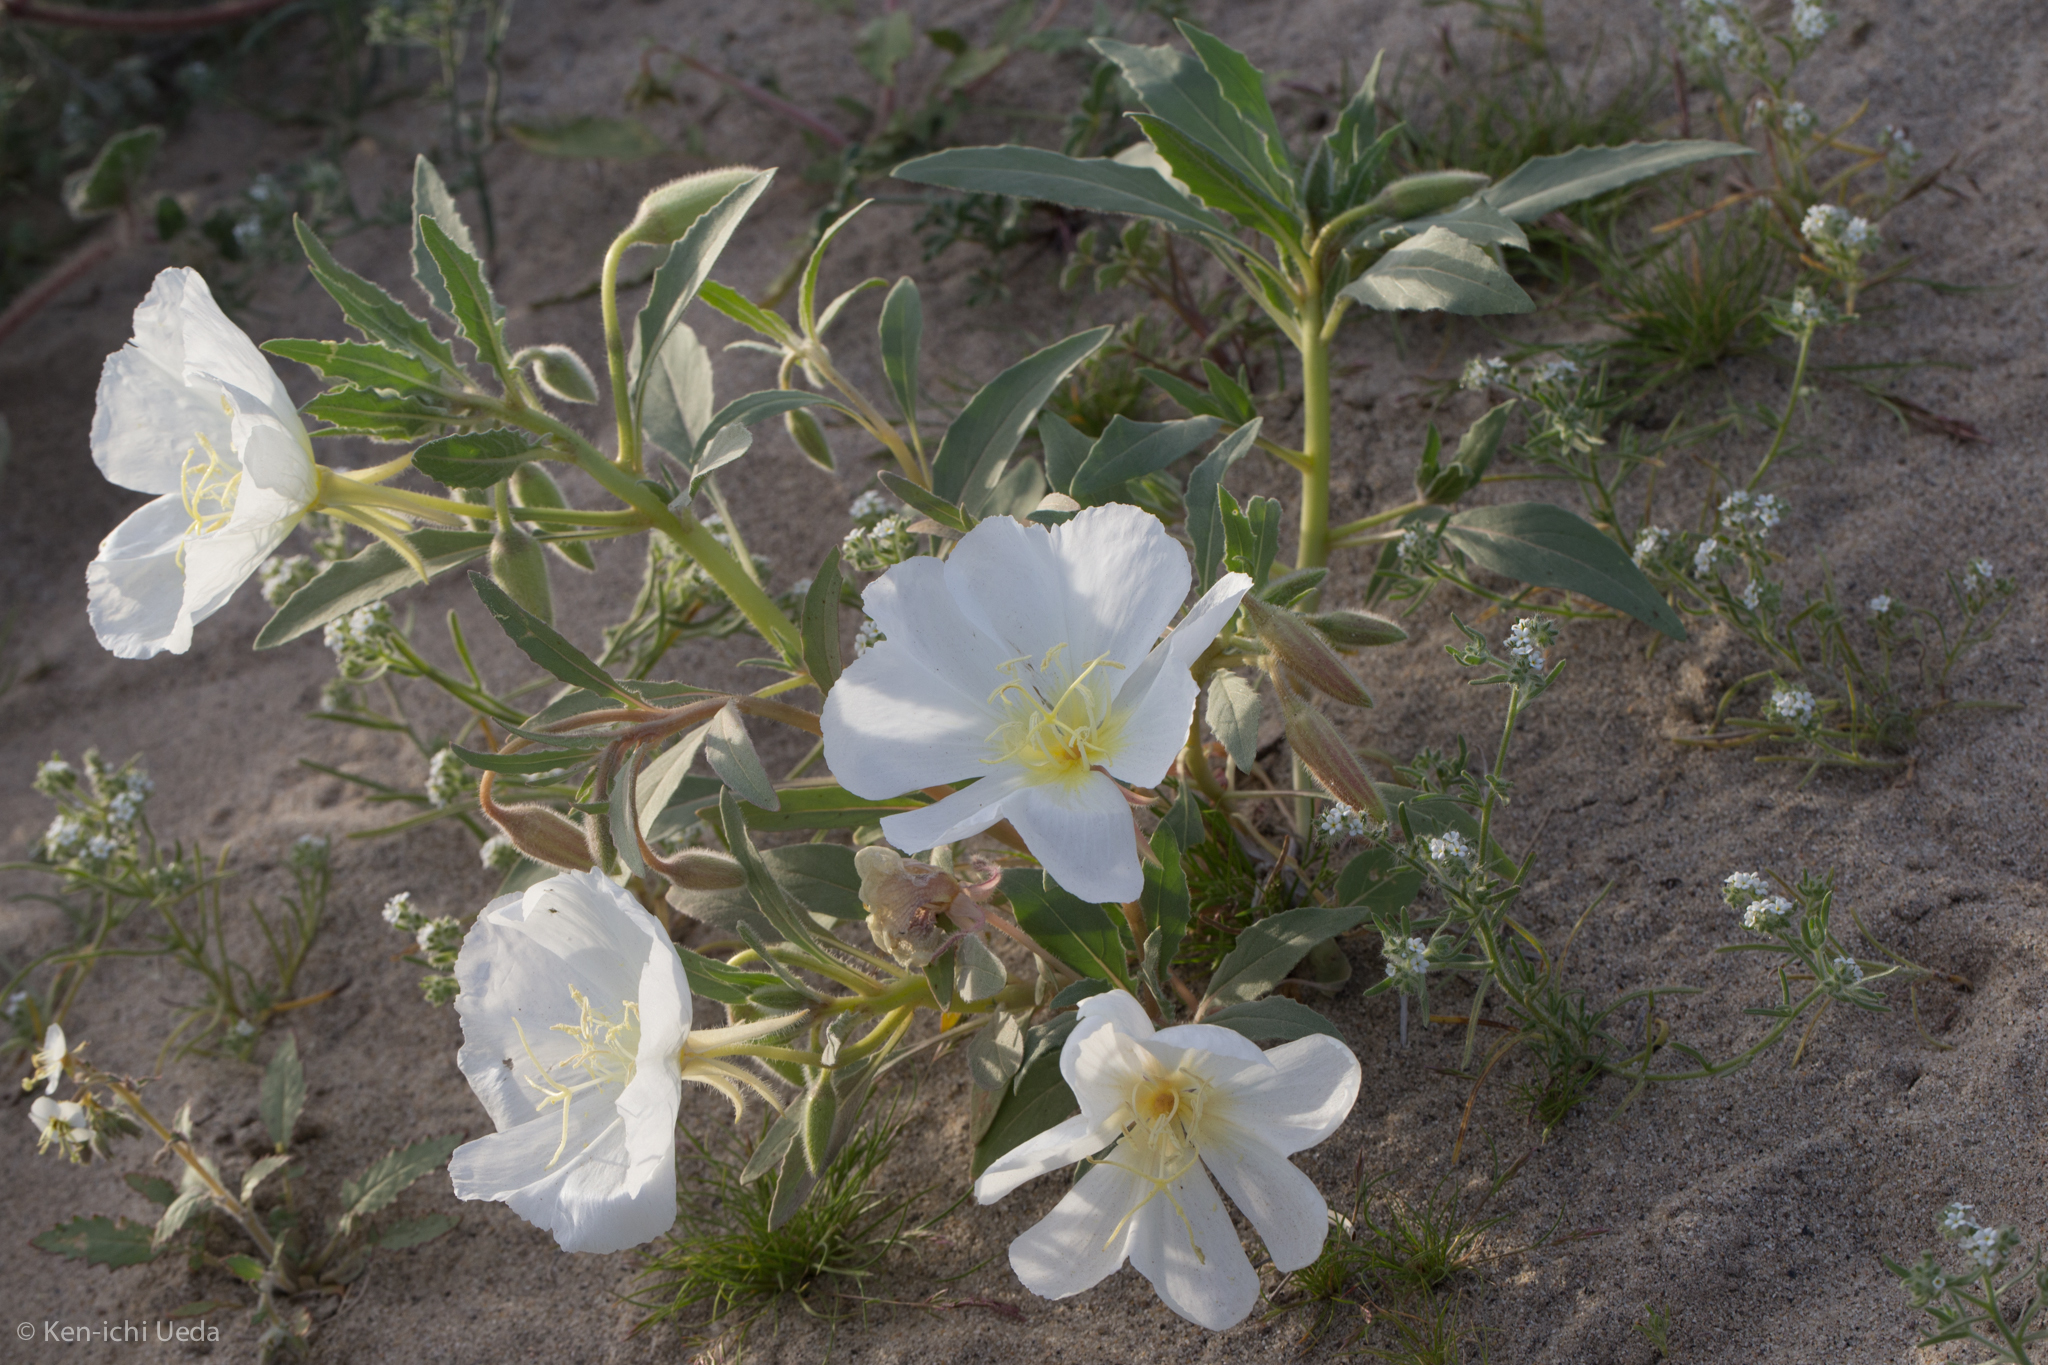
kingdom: Plantae
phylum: Tracheophyta
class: Magnoliopsida
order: Myrtales
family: Onagraceae
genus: Oenothera
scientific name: Oenothera deltoides
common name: Basket evening-primrose
